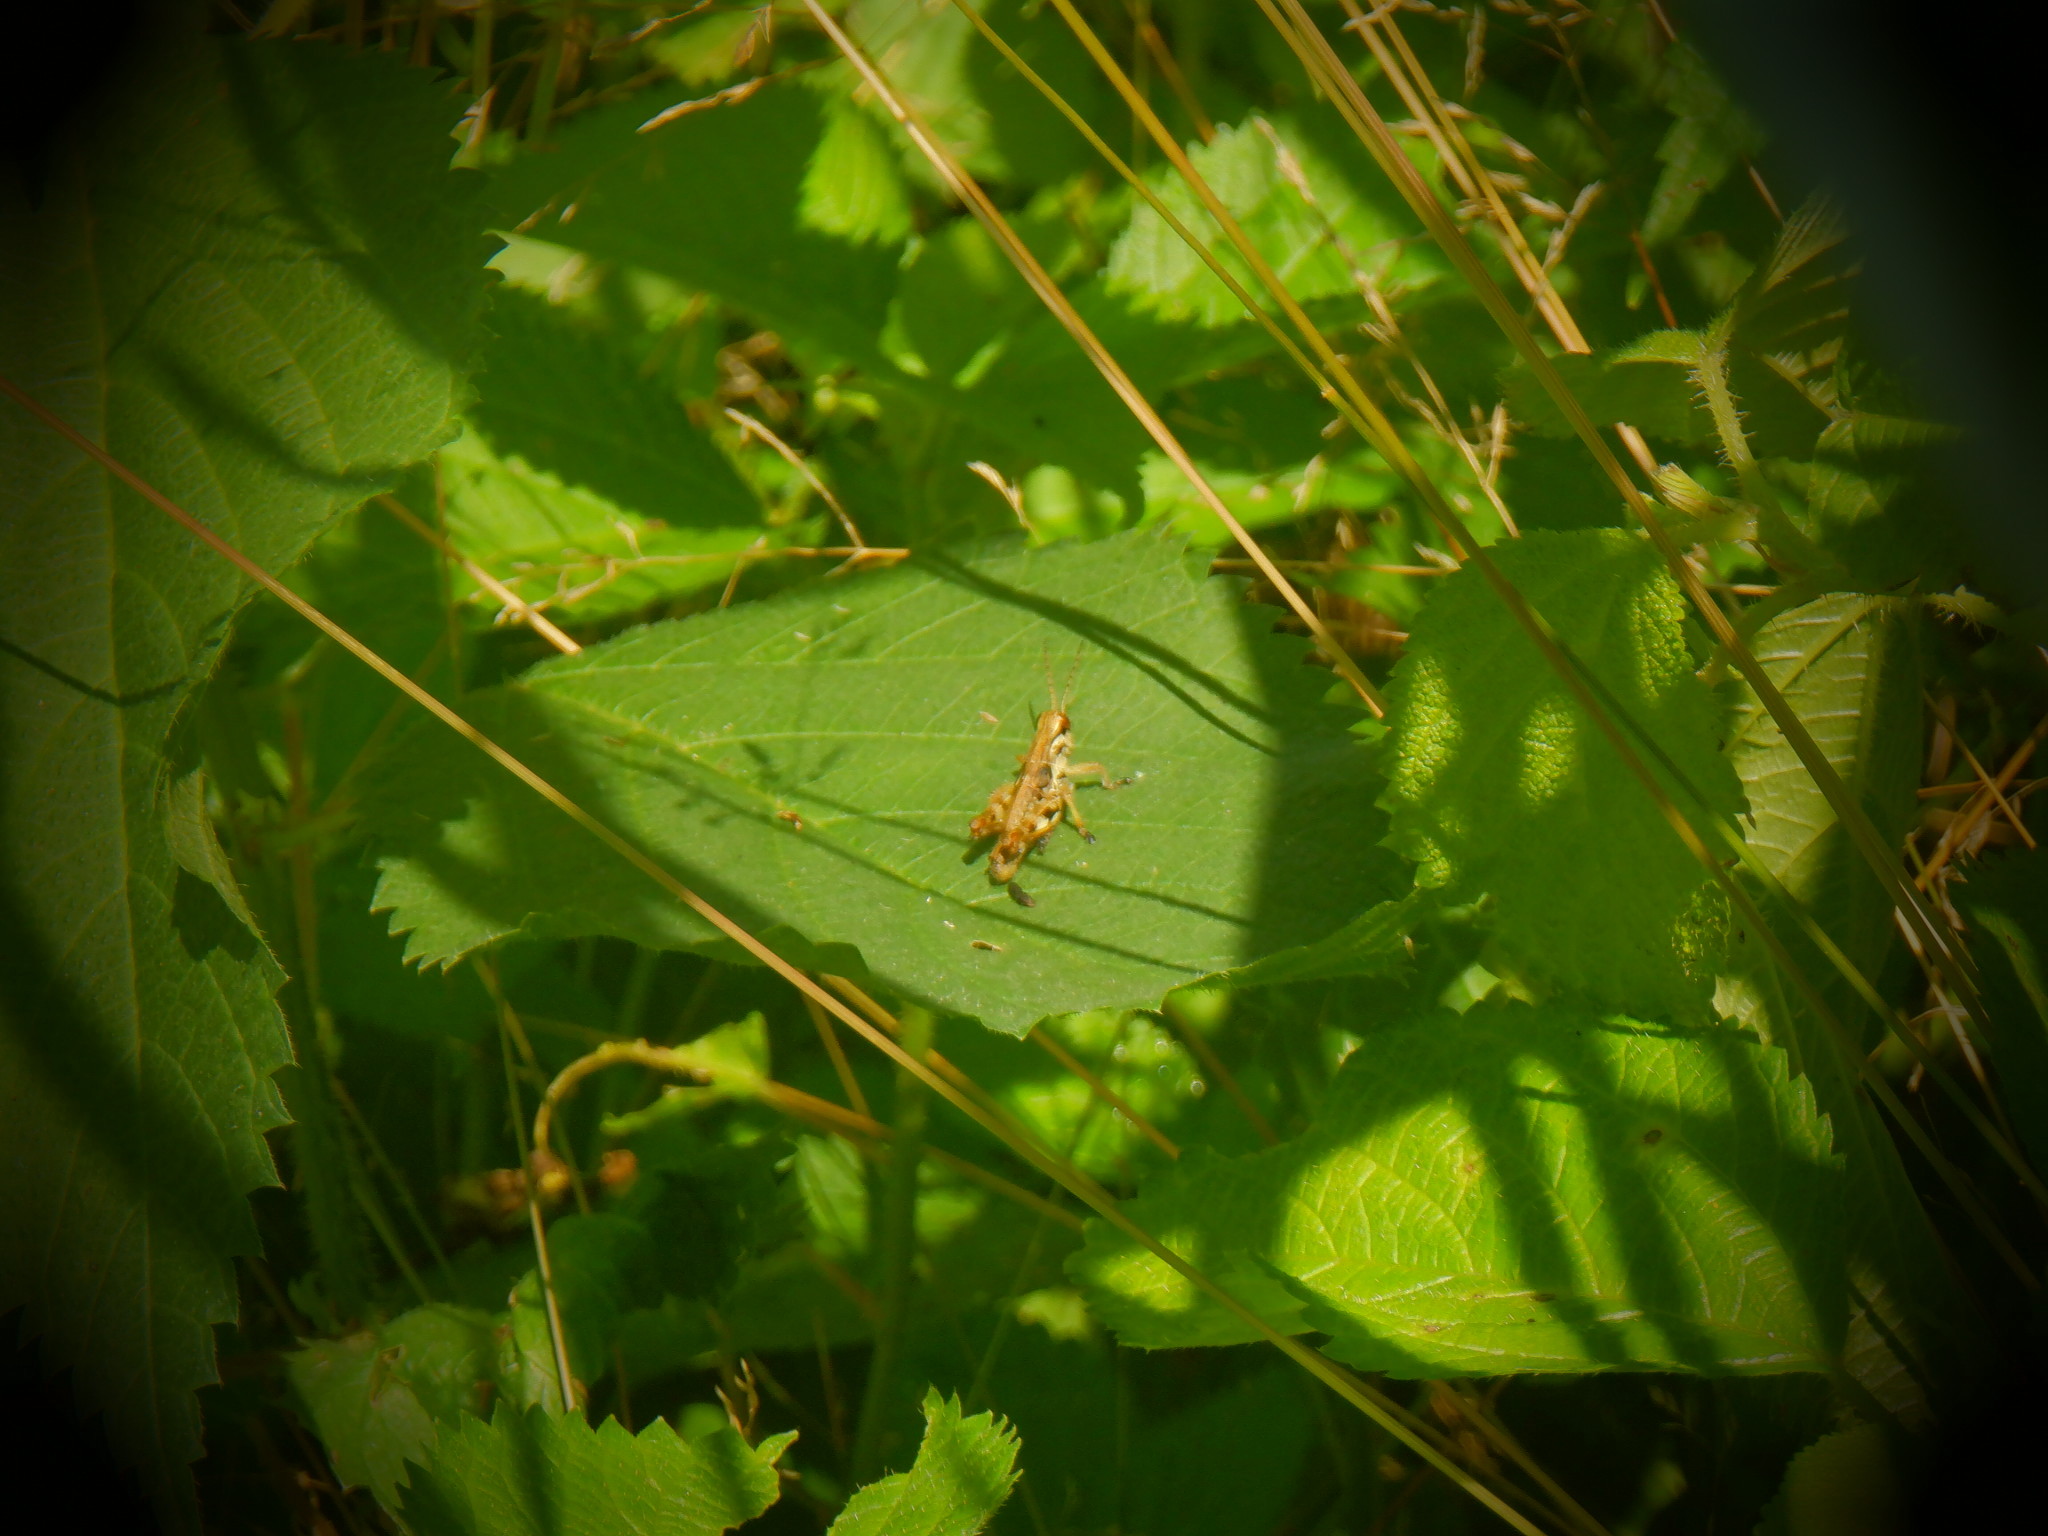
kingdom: Animalia
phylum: Arthropoda
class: Insecta
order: Orthoptera
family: Acrididae
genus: Melanoplus
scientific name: Melanoplus walshii
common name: Walsh's locust
